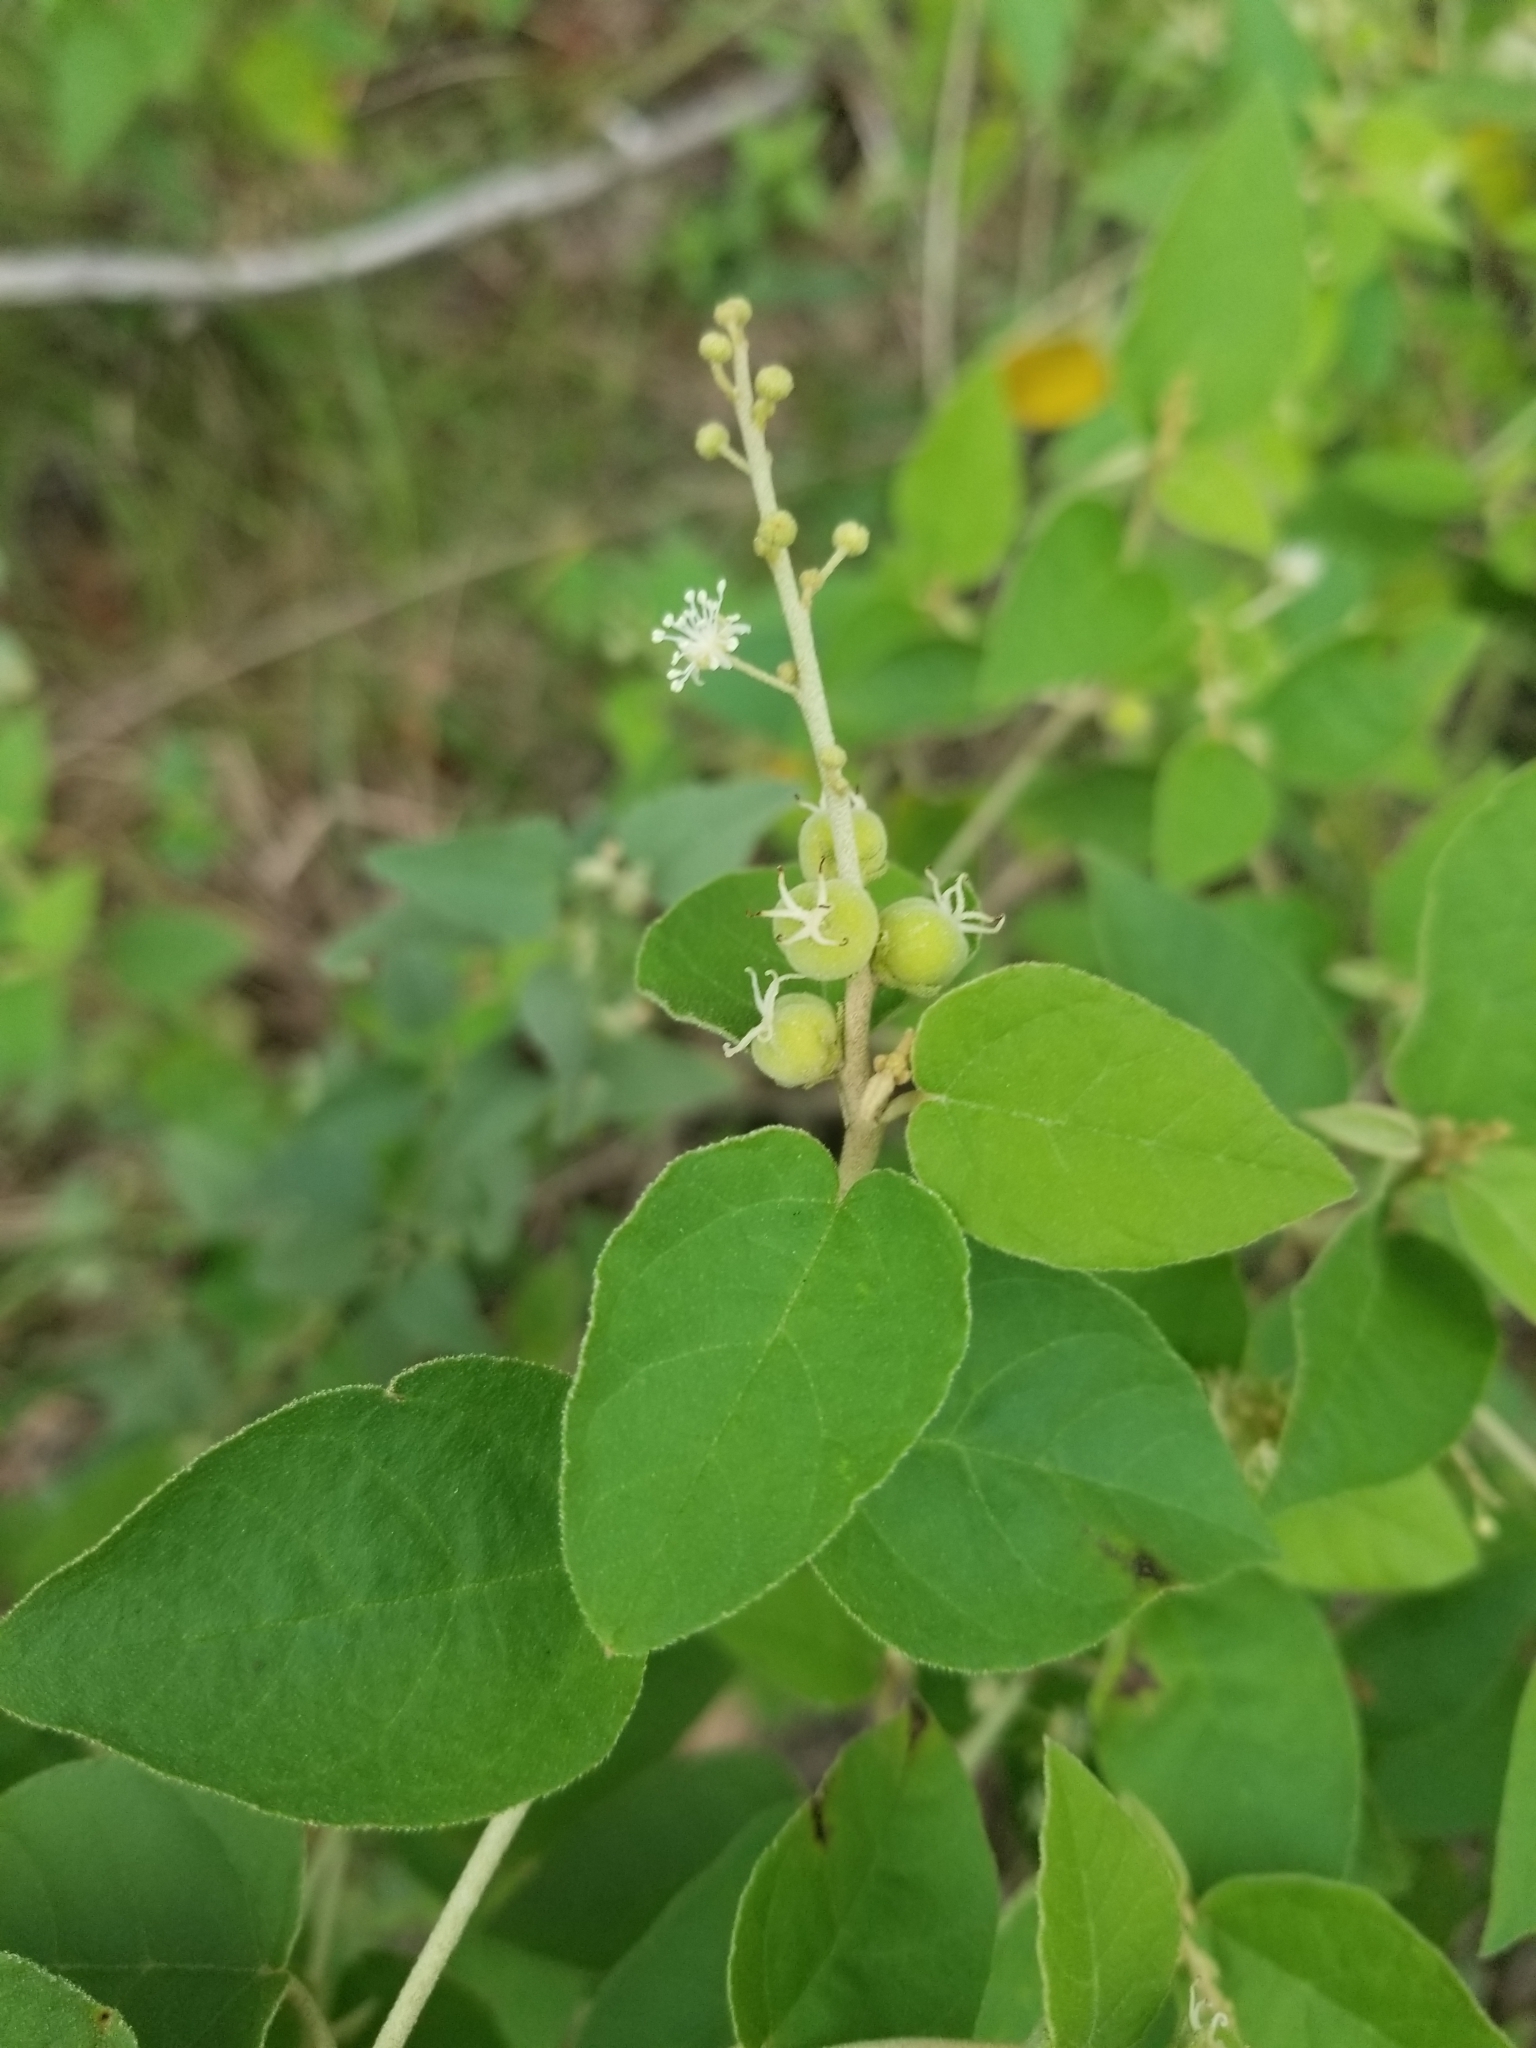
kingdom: Plantae
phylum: Tracheophyta
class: Magnoliopsida
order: Malpighiales
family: Euphorbiaceae
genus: Croton
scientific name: Croton fruticulosus
